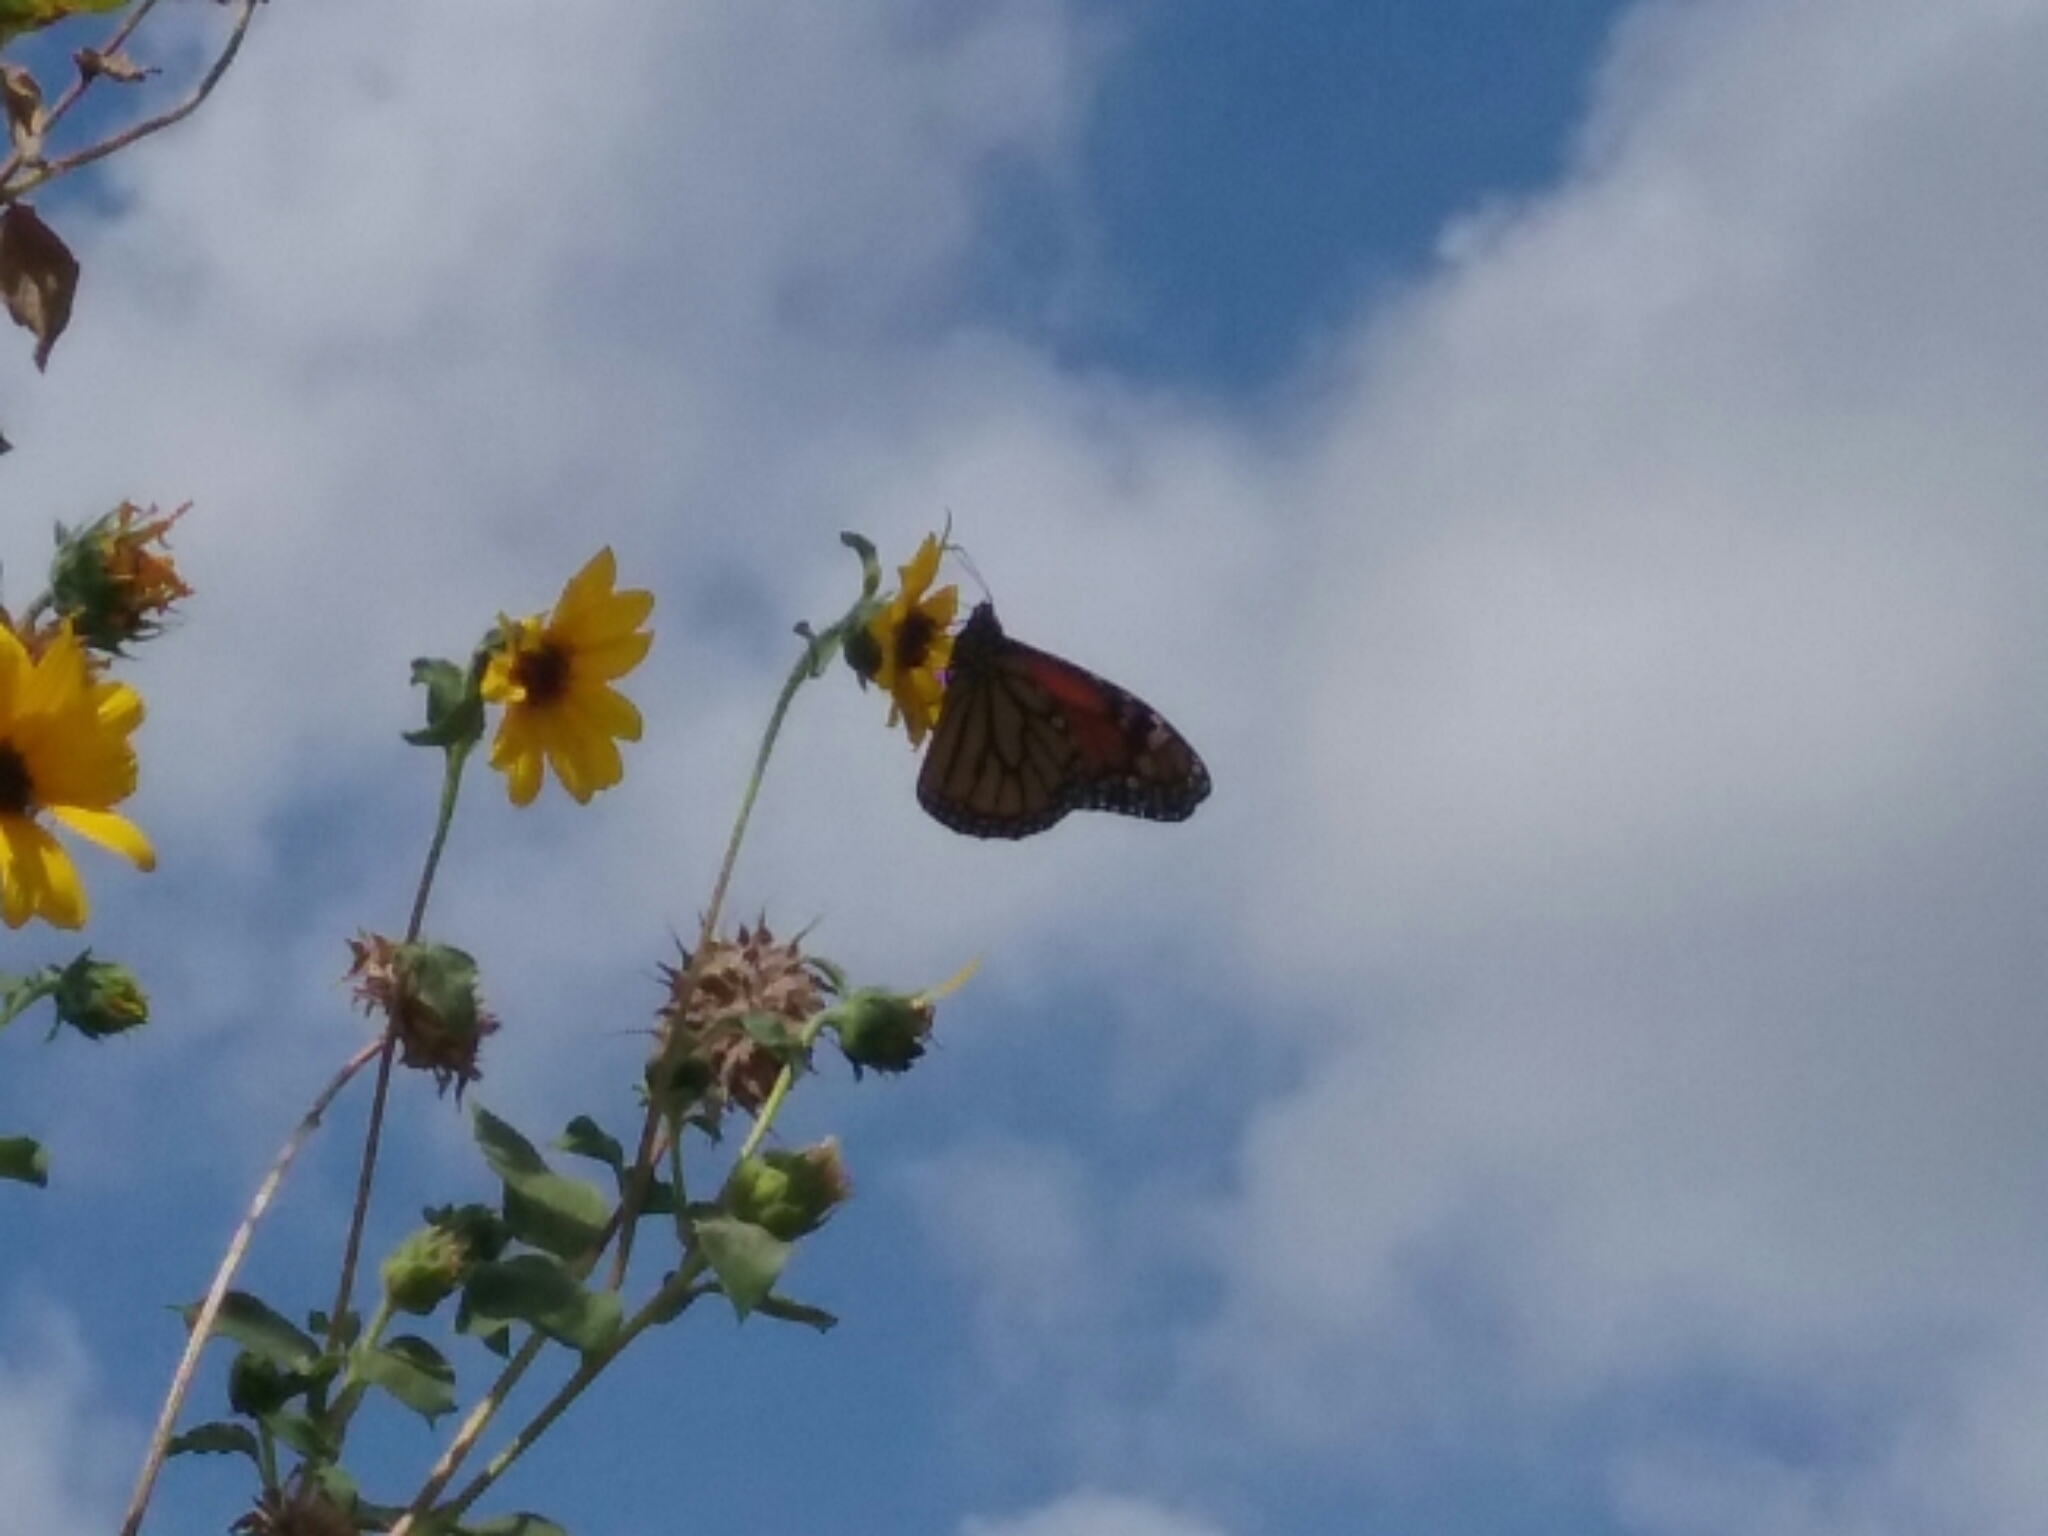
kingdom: Animalia
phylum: Arthropoda
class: Insecta
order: Lepidoptera
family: Nymphalidae
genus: Danaus
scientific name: Danaus plexippus
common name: Monarch
